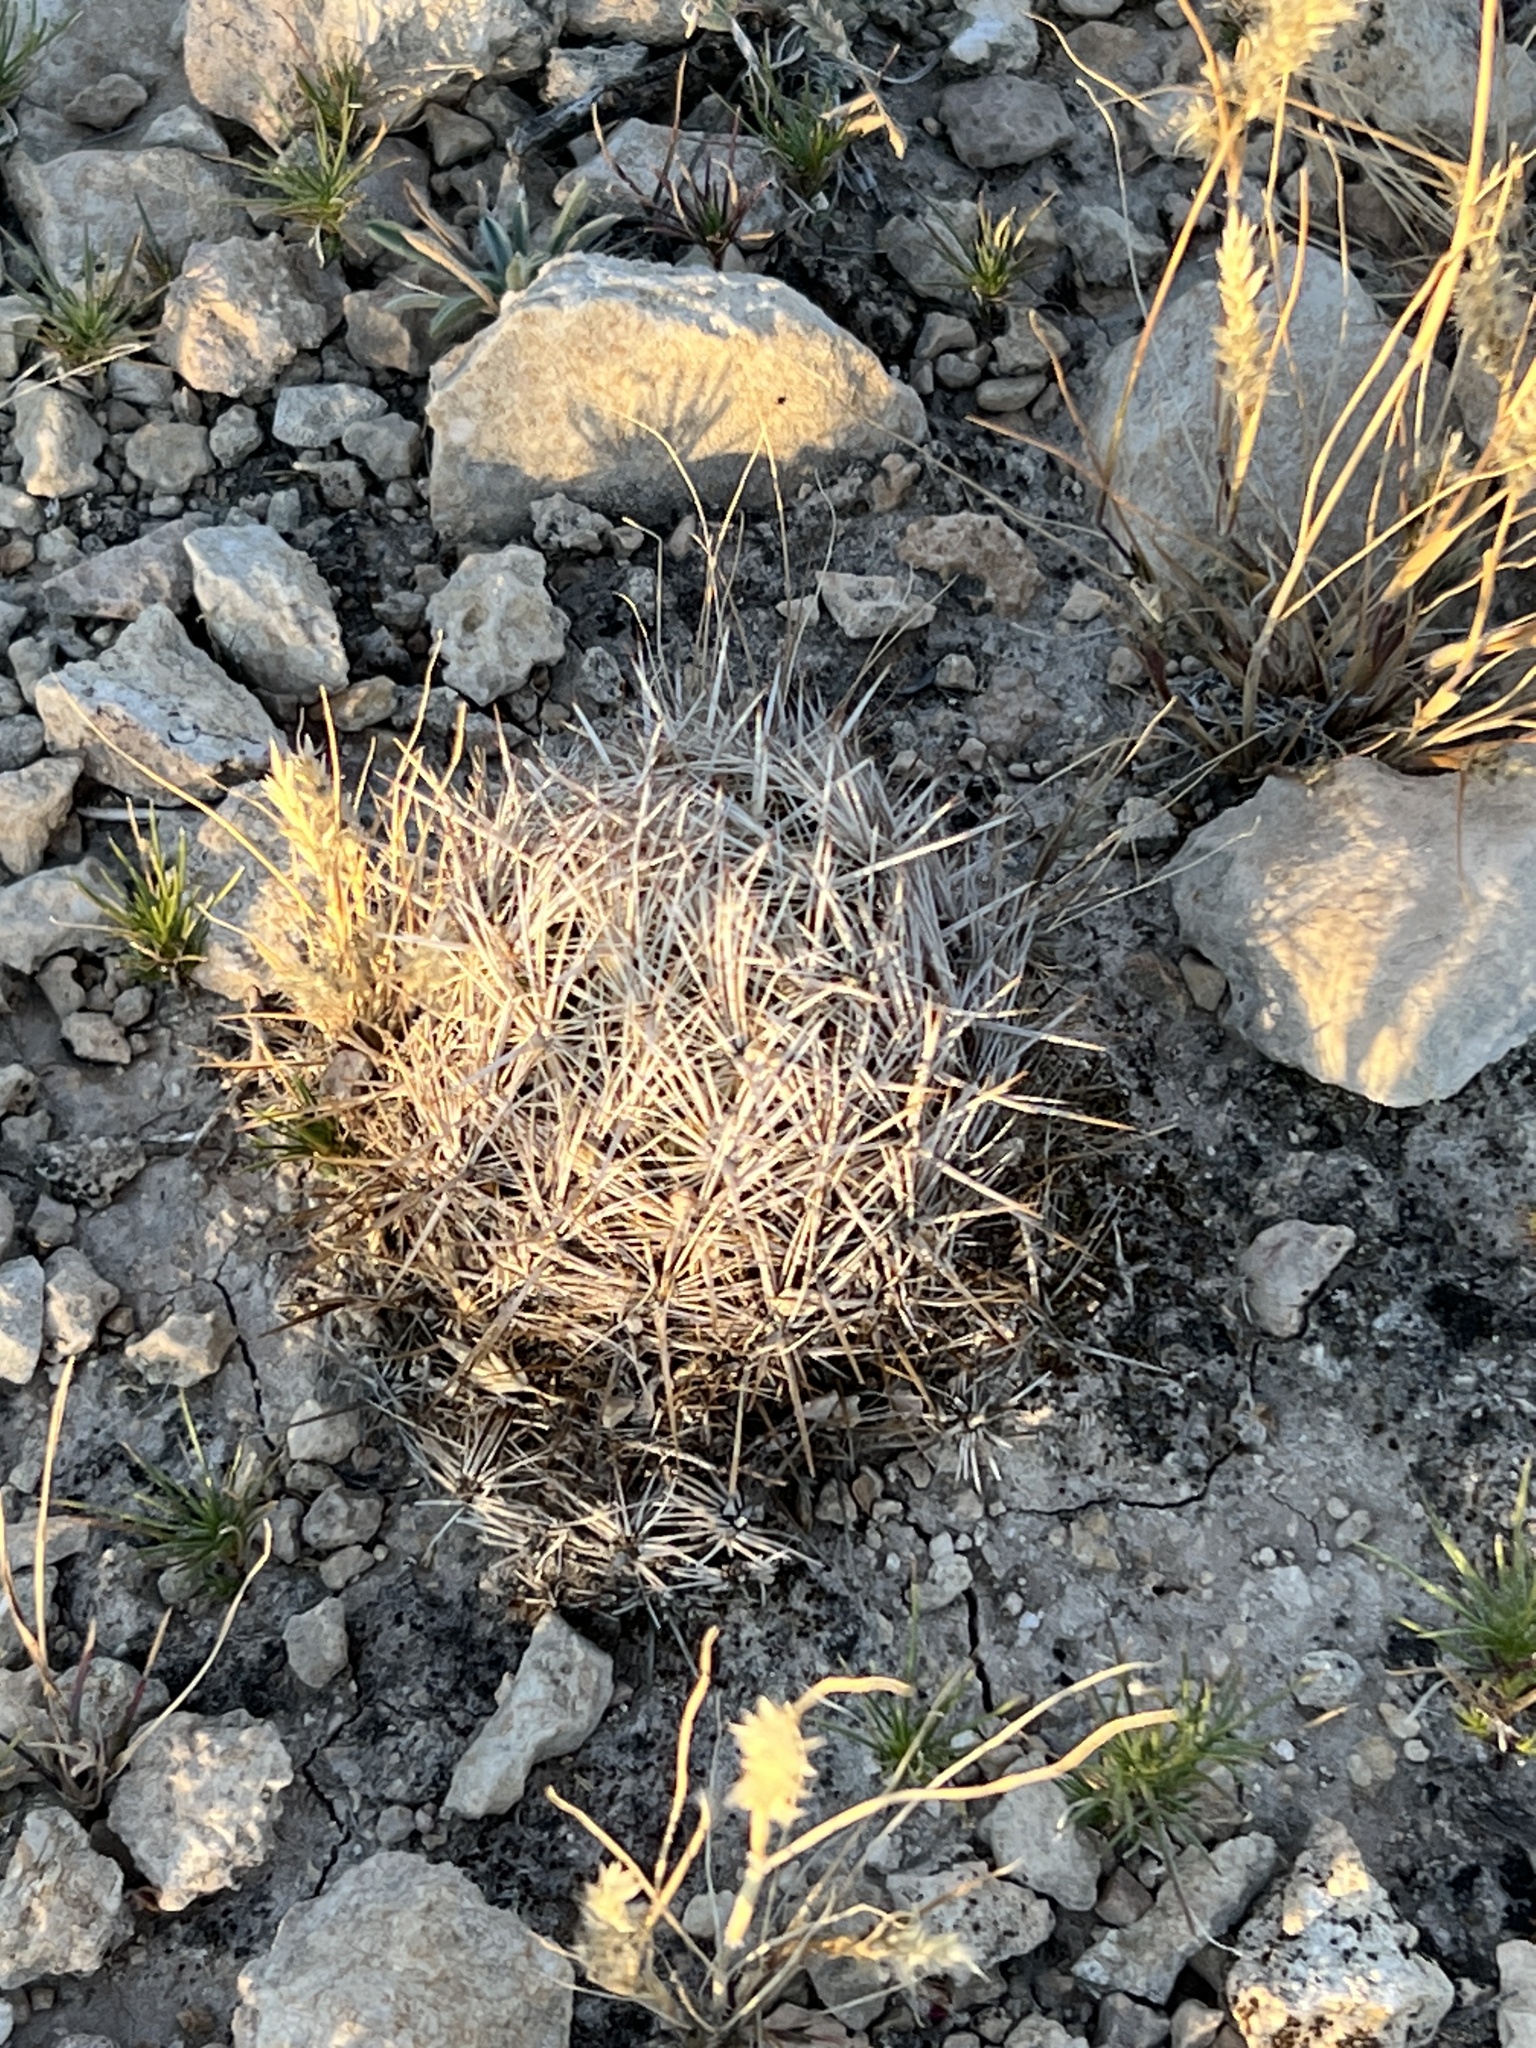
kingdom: Plantae
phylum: Tracheophyta
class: Magnoliopsida
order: Caryophyllales
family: Cactaceae
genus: Coryphantha
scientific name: Coryphantha echinus
